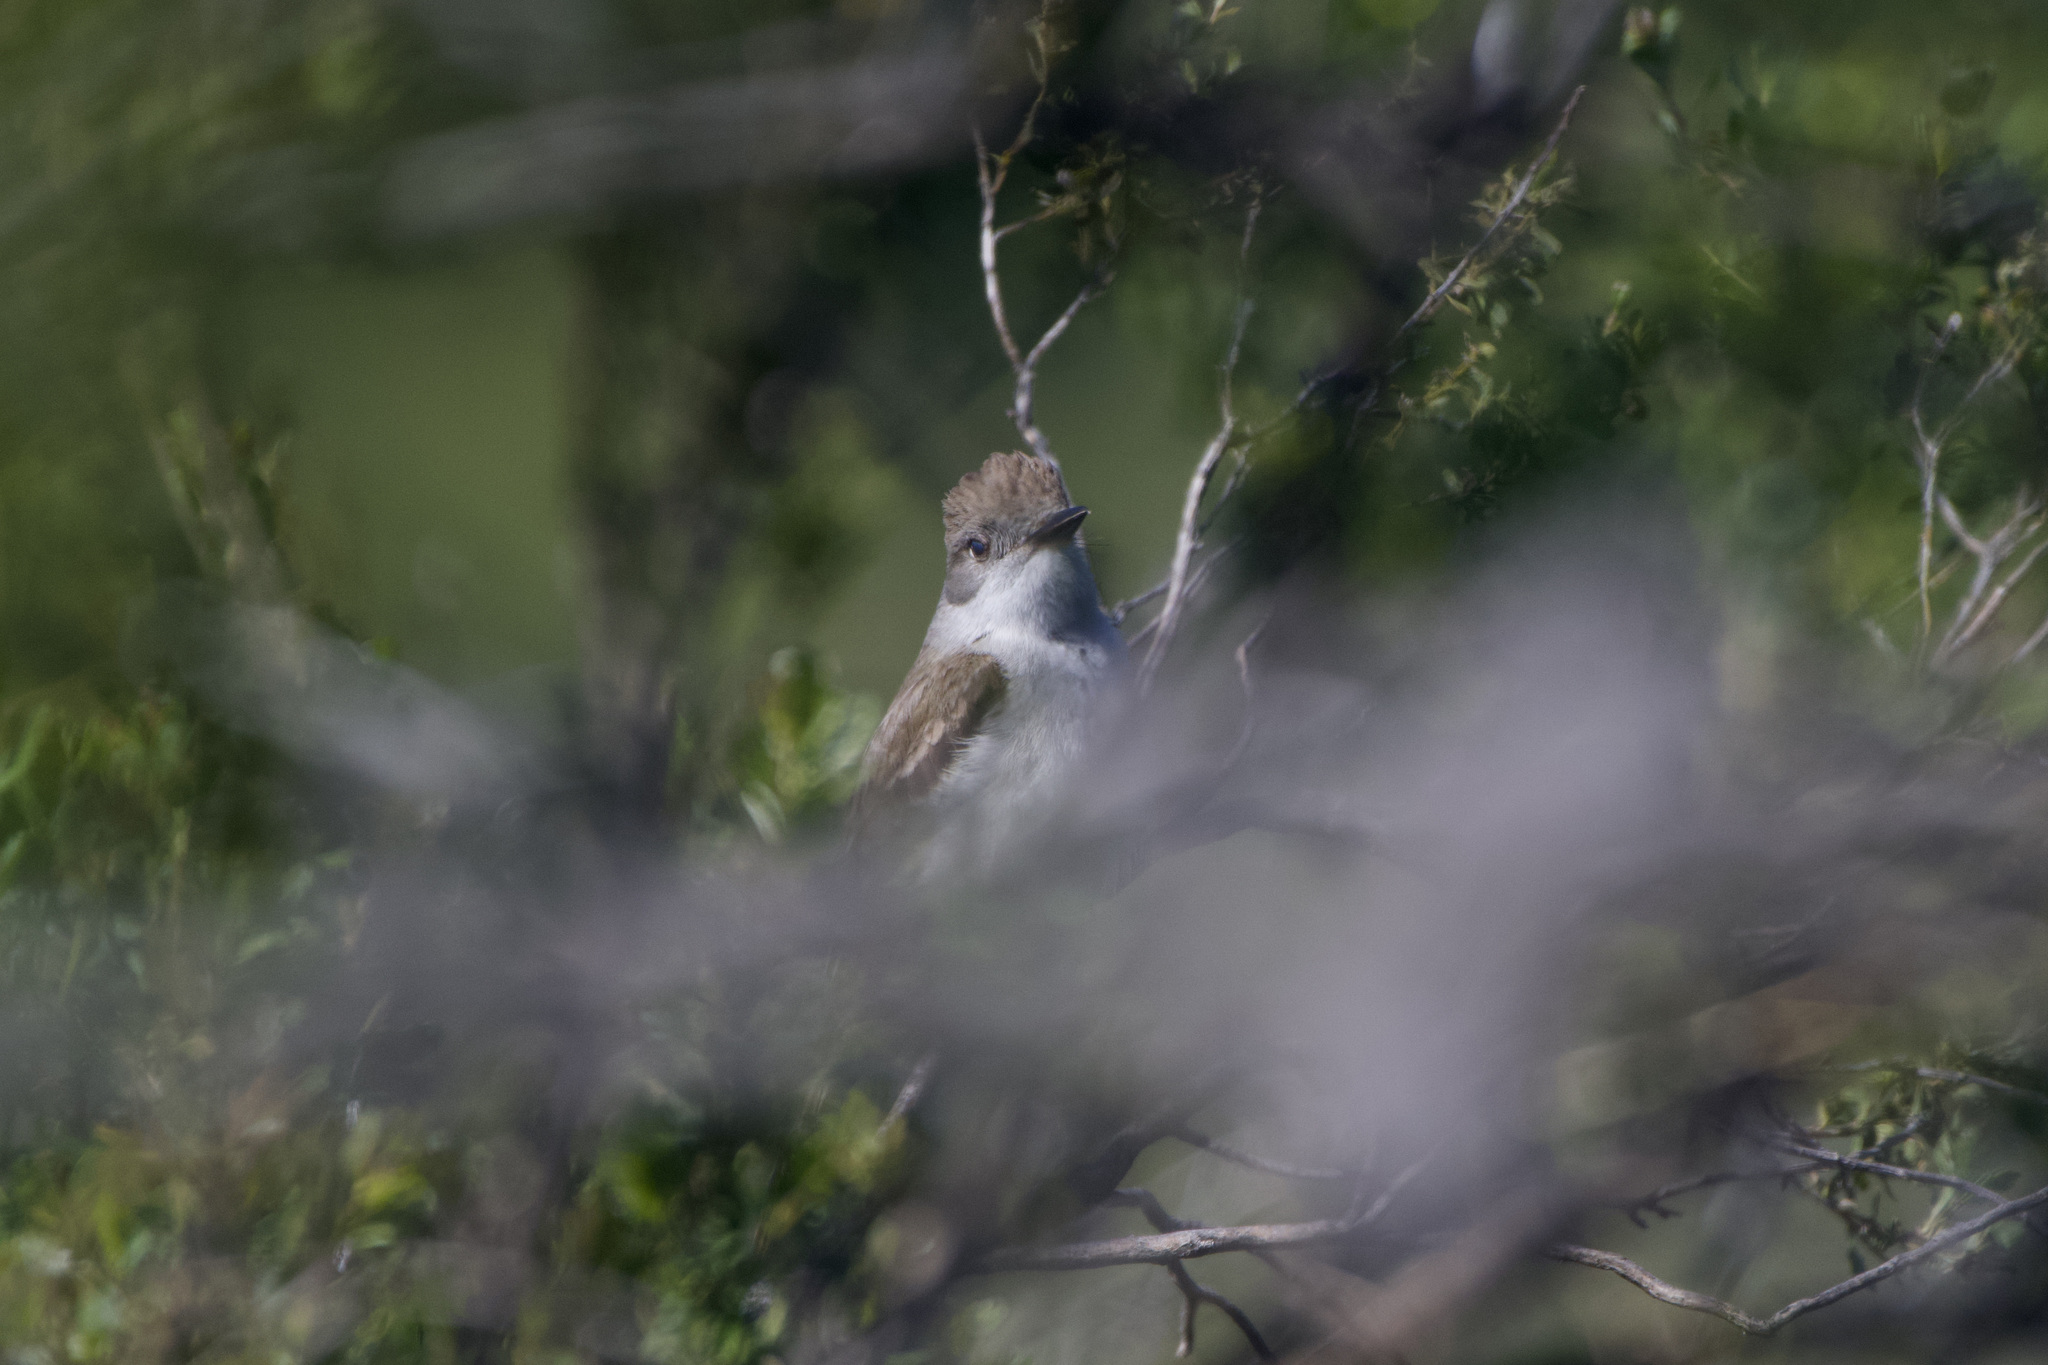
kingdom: Animalia
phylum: Chordata
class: Aves
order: Passeriformes
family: Tyrannidae
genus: Myiarchus
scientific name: Myiarchus cinerascens
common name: Ash-throated flycatcher
